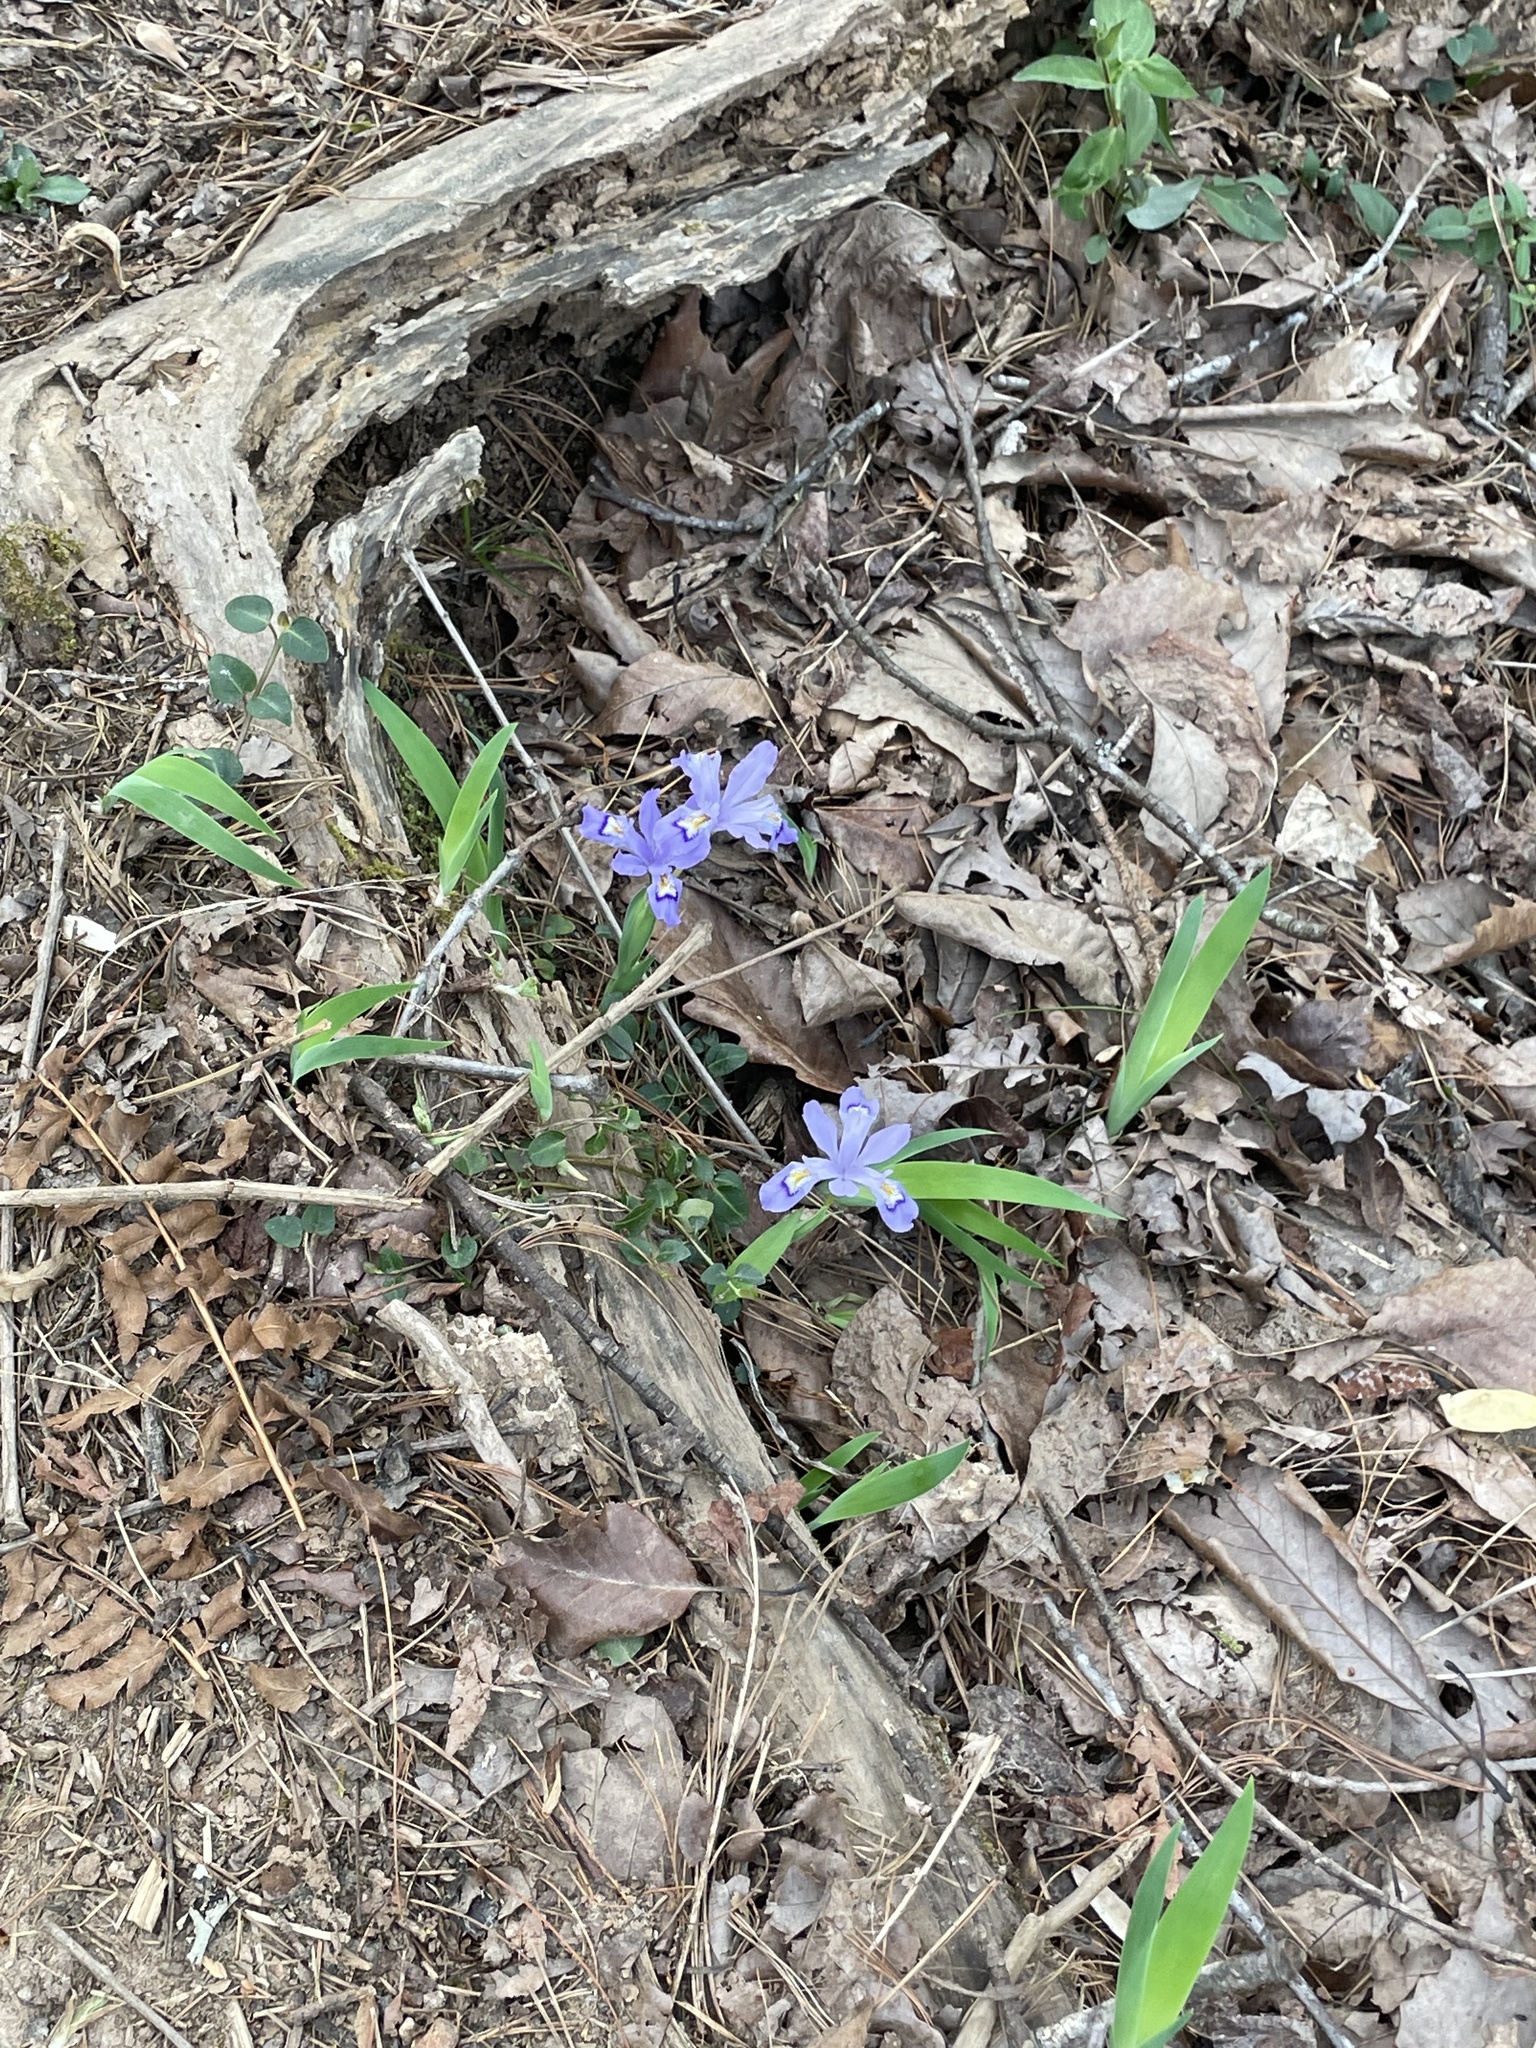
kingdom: Plantae
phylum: Tracheophyta
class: Liliopsida
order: Asparagales
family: Iridaceae
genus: Iris
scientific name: Iris cristata
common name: Crested iris
